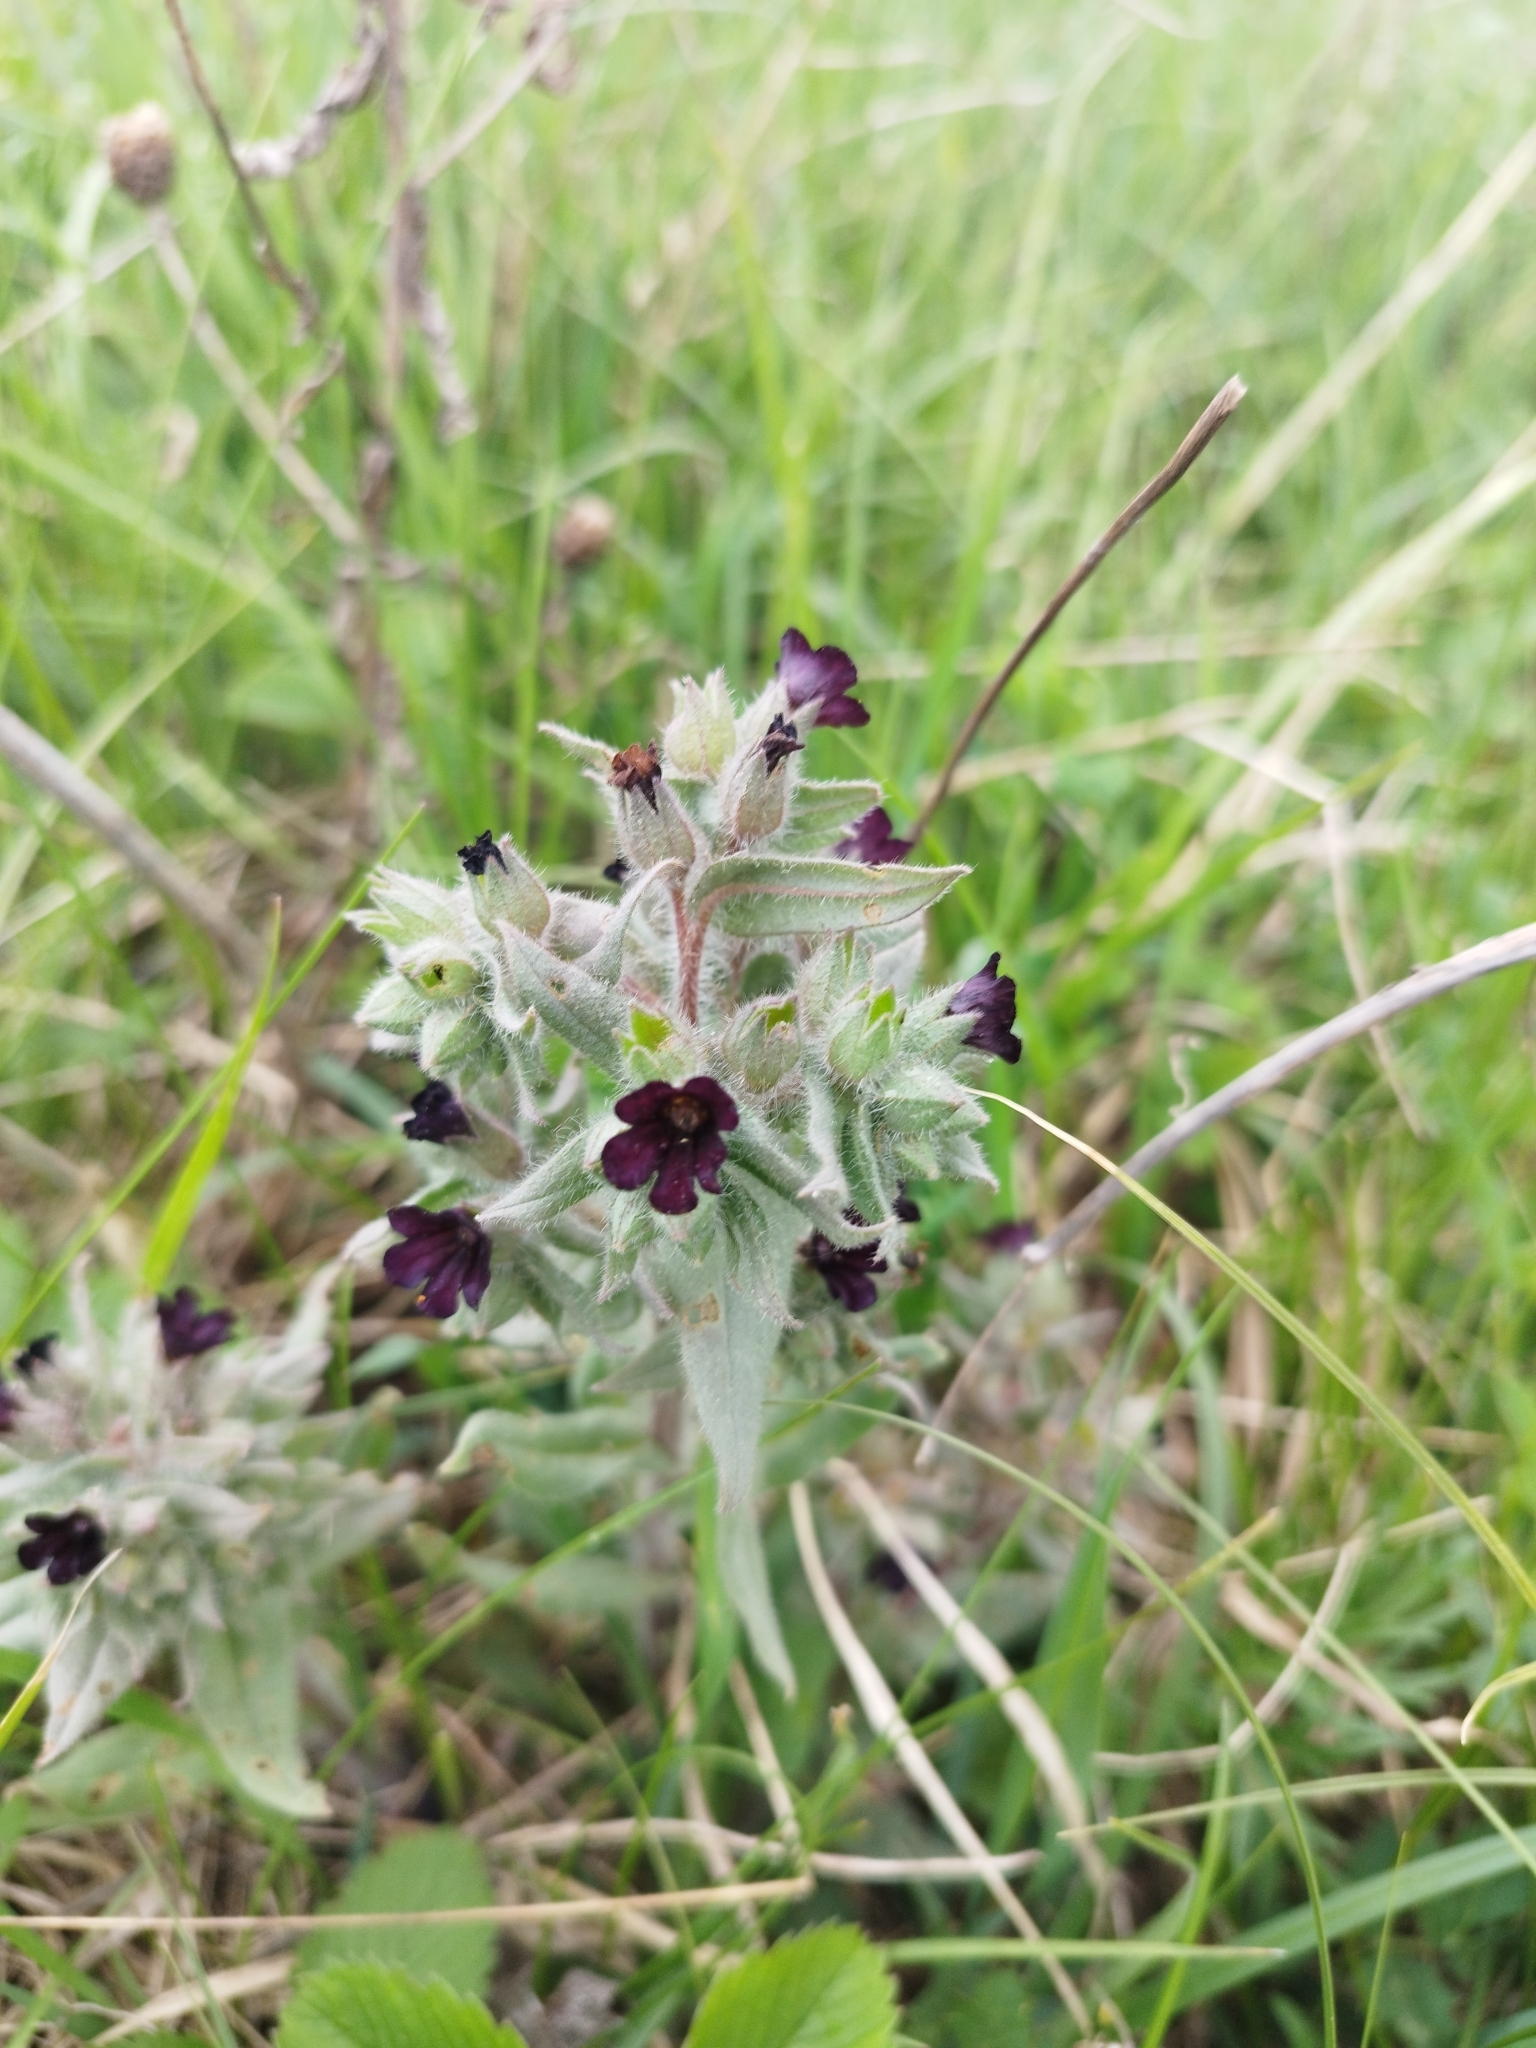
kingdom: Plantae
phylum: Tracheophyta
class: Magnoliopsida
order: Boraginales
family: Boraginaceae
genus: Nonea
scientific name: Nonea pulla
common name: Brown nonea
